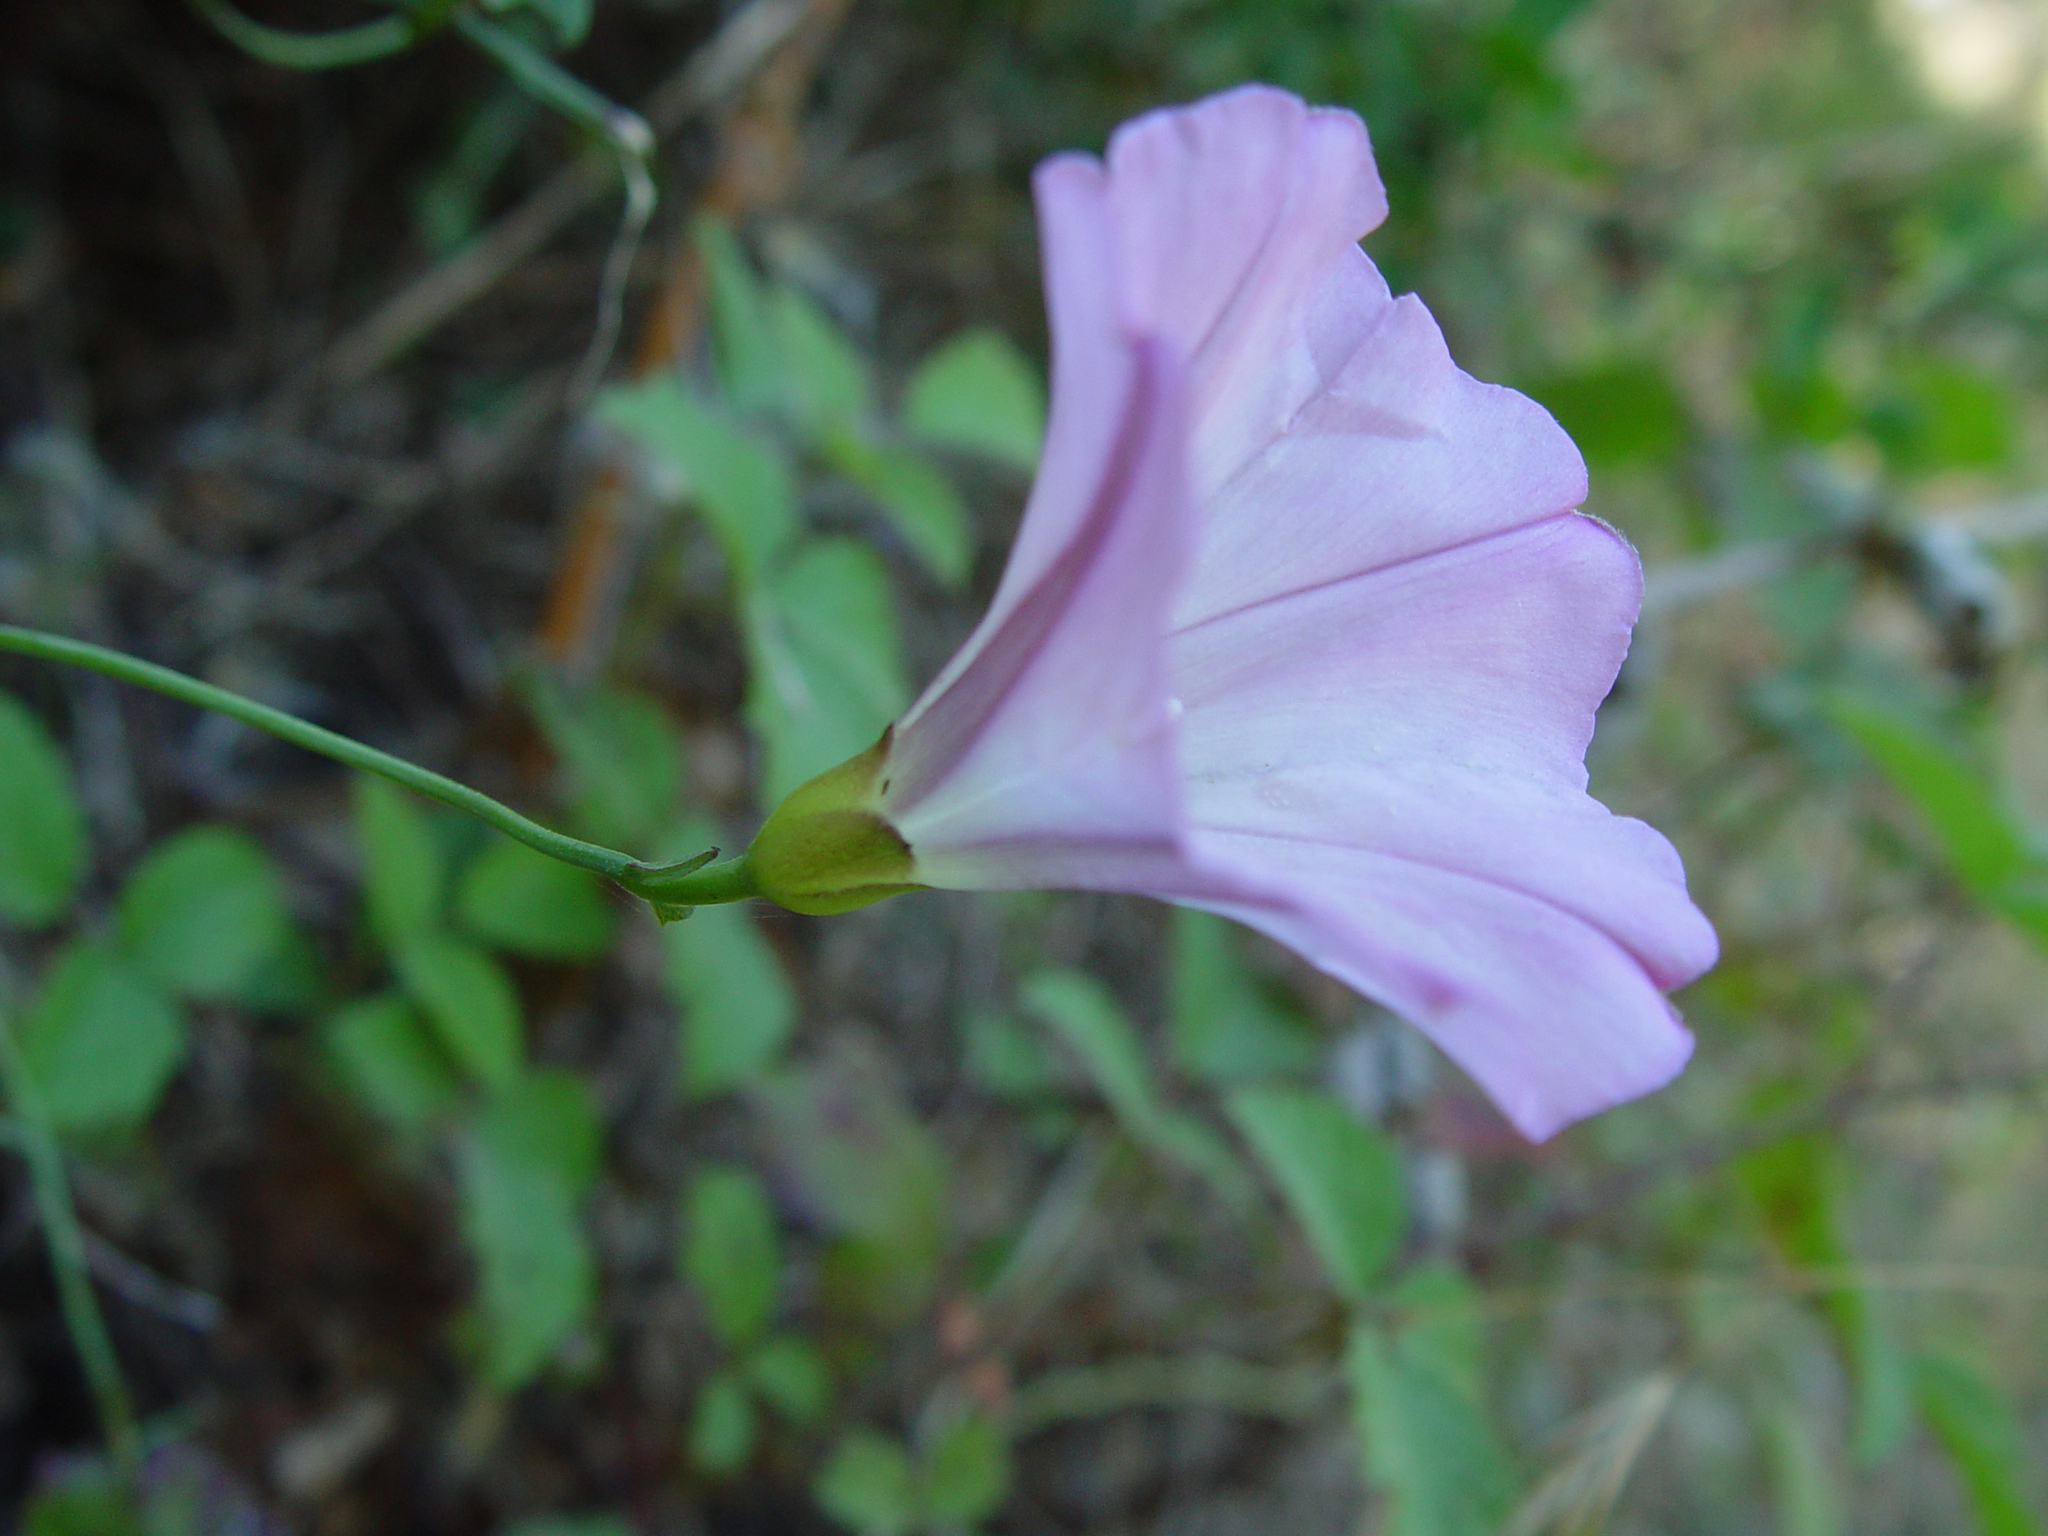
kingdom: Plantae
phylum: Tracheophyta
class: Magnoliopsida
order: Solanales
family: Convolvulaceae
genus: Calystegia
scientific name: Calystegia purpurata
